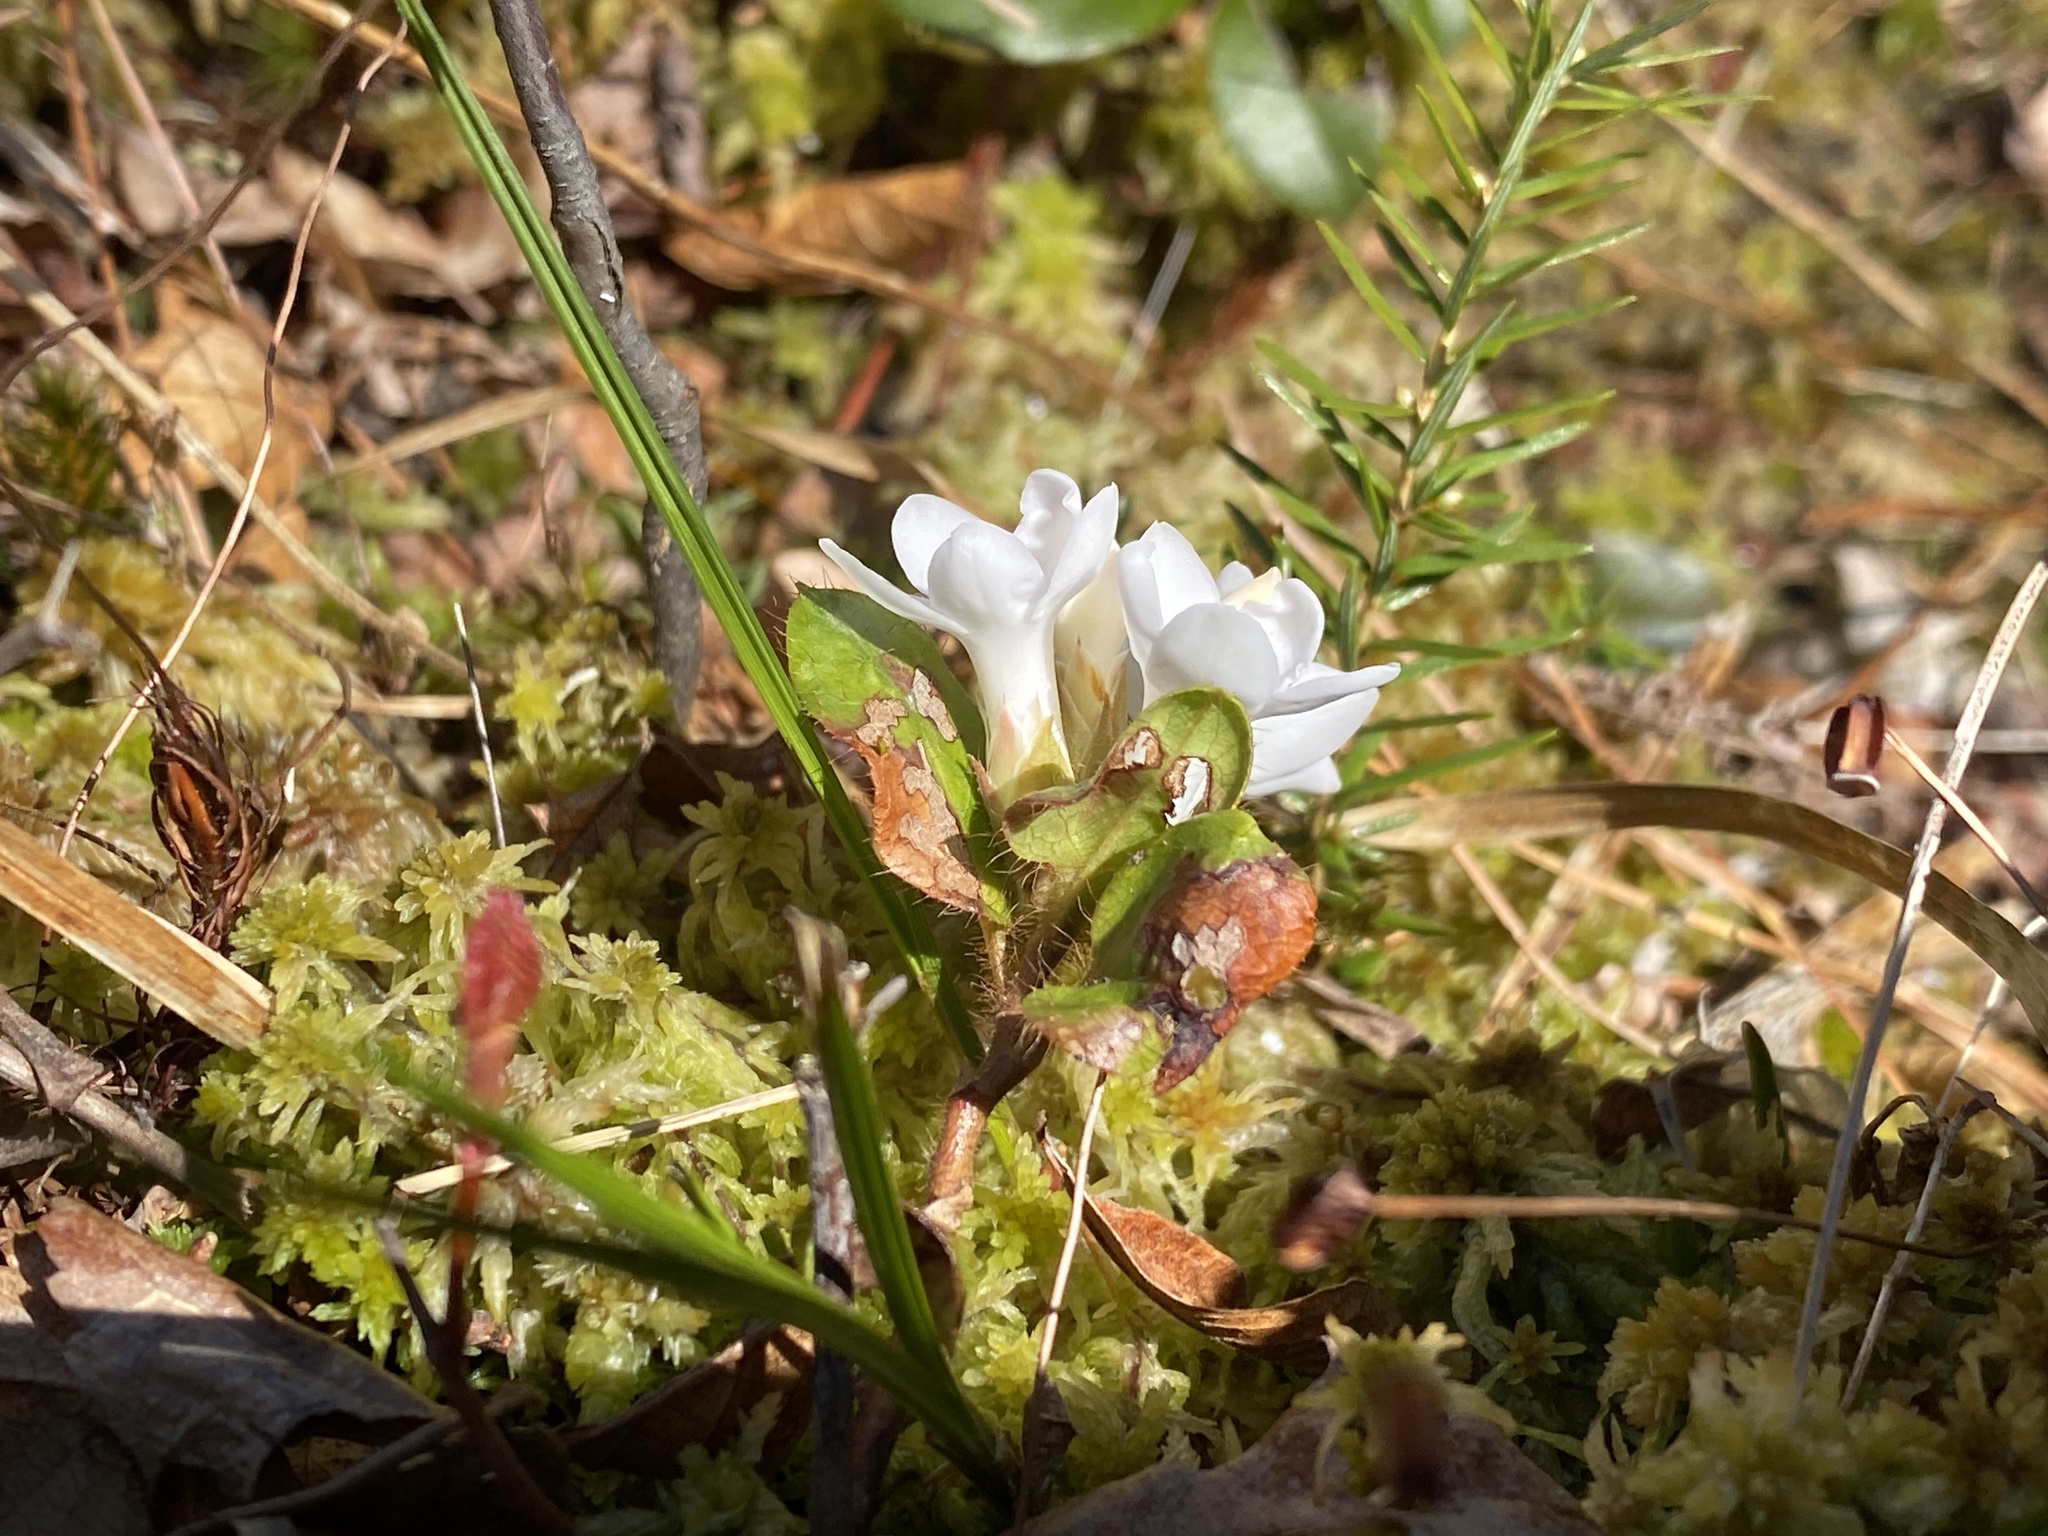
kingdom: Plantae
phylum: Tracheophyta
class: Magnoliopsida
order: Ericales
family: Ericaceae
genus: Epigaea
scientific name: Epigaea repens
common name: Gravelroot
